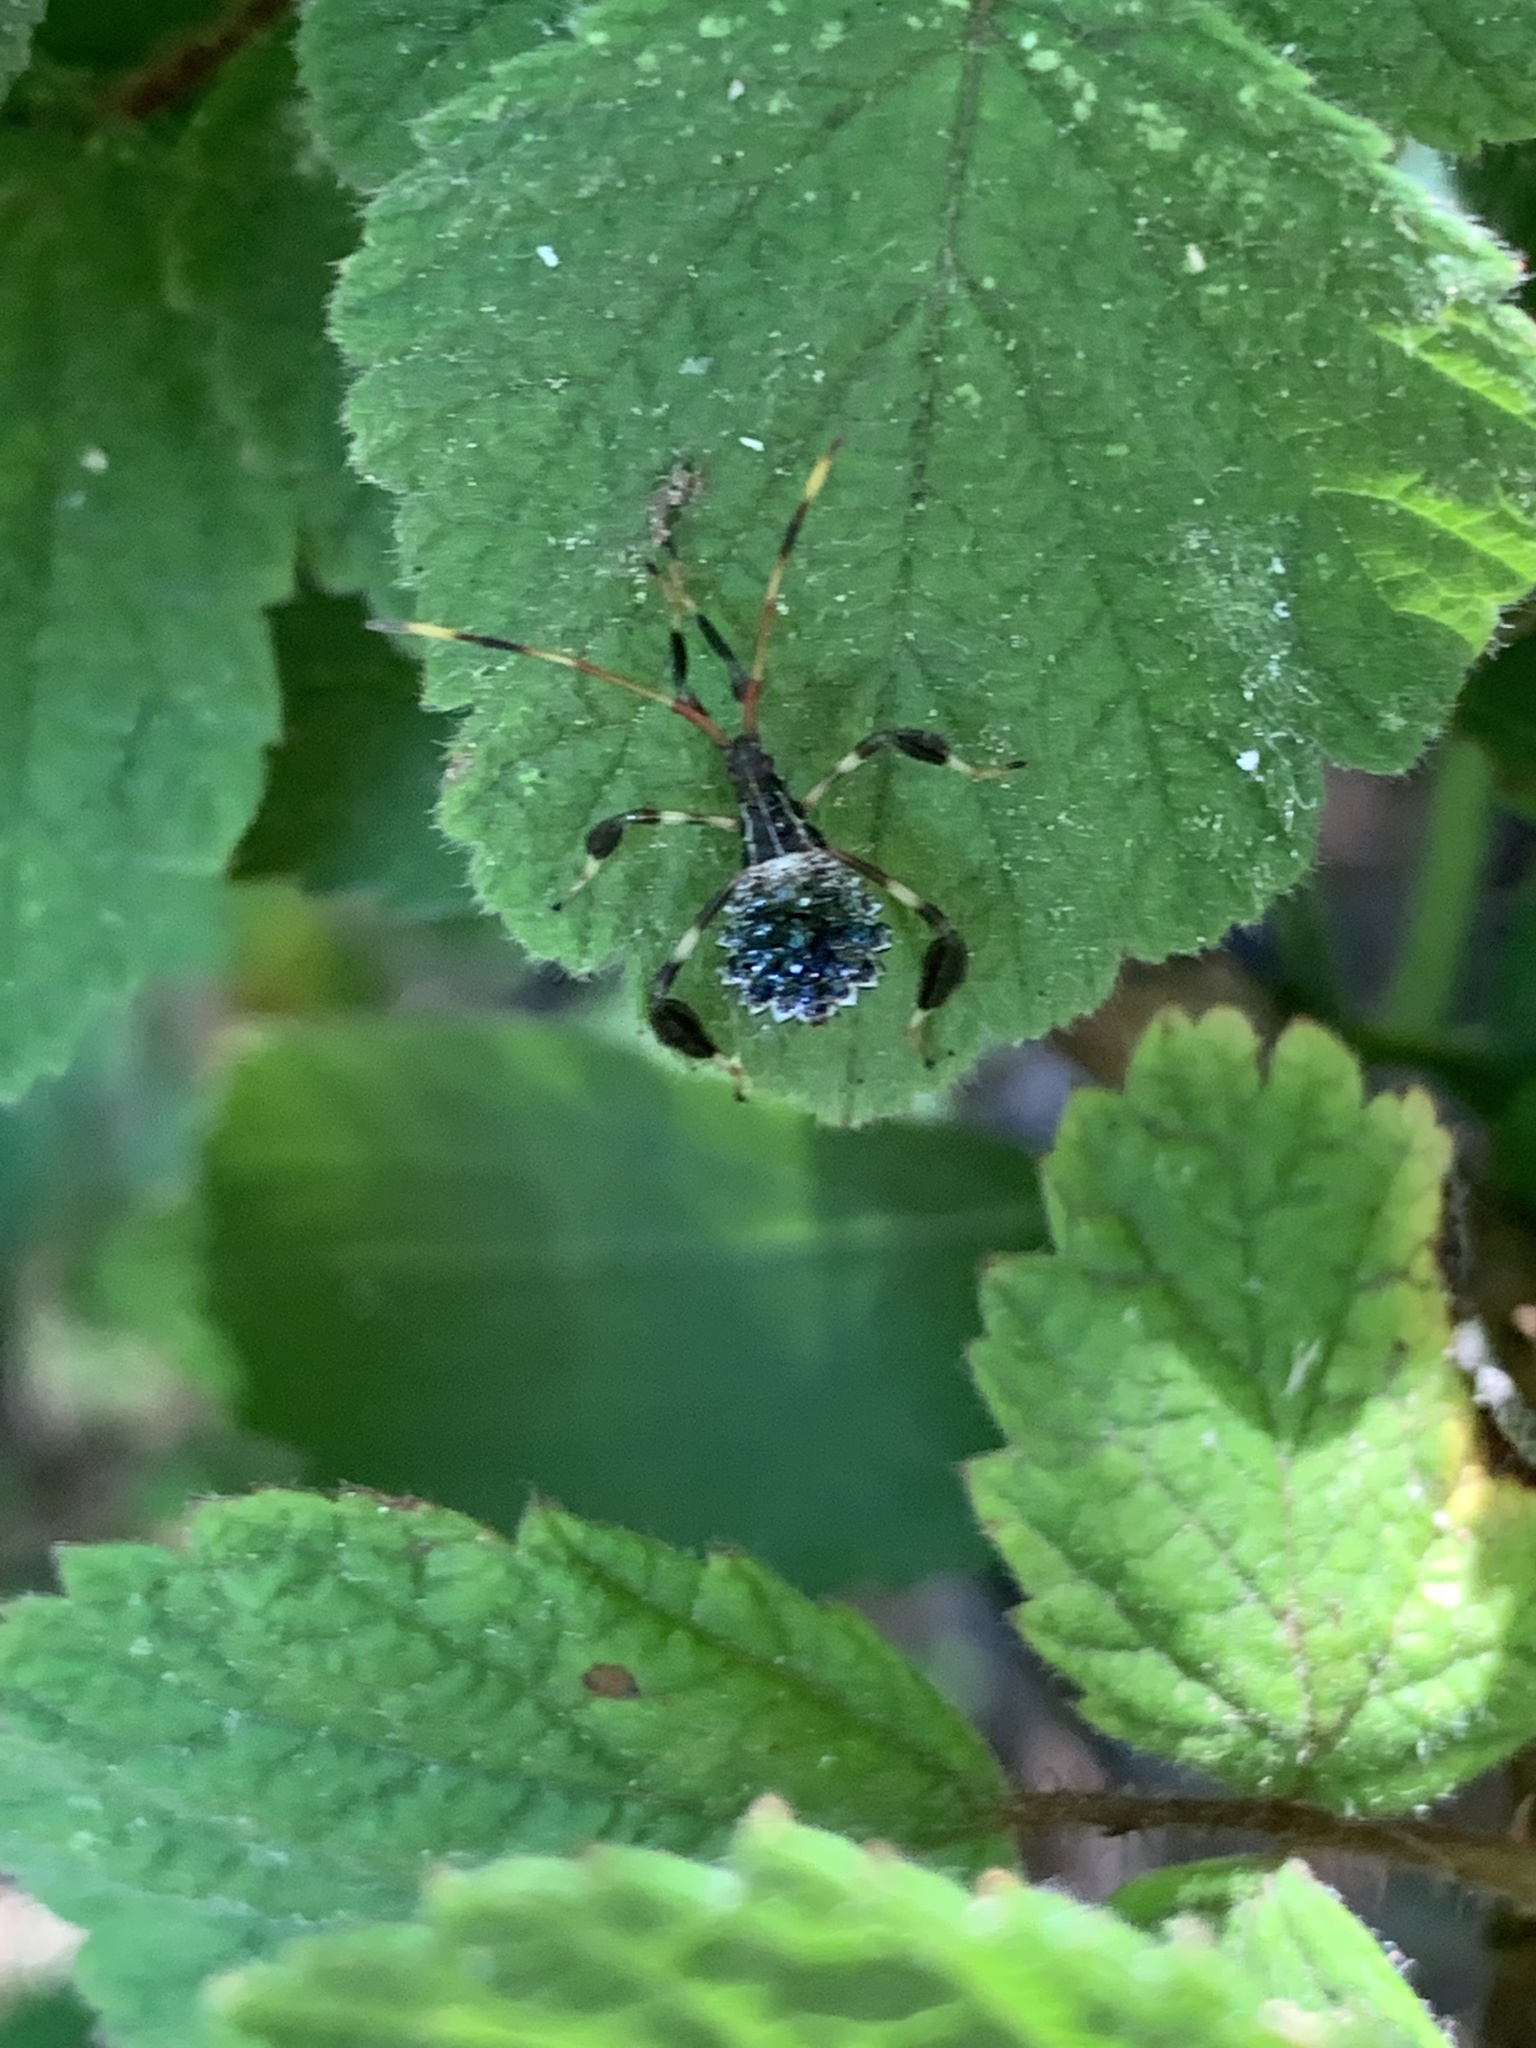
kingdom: Animalia
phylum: Arthropoda
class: Insecta
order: Hemiptera
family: Coreidae
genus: Acanthocephala
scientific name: Acanthocephala terminalis
